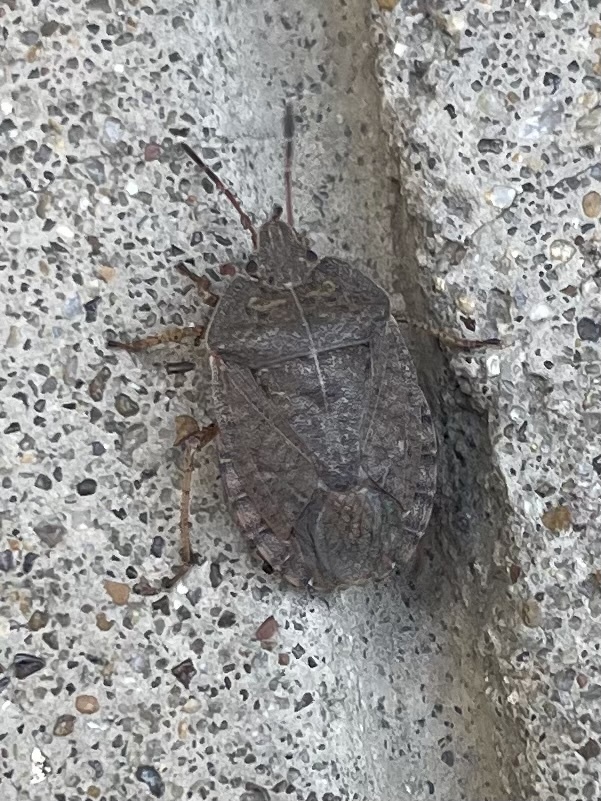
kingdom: Animalia
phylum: Arthropoda
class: Insecta
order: Hemiptera
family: Pentatomidae
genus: Menecles
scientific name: Menecles insertus
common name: Elf shoe stink bug
